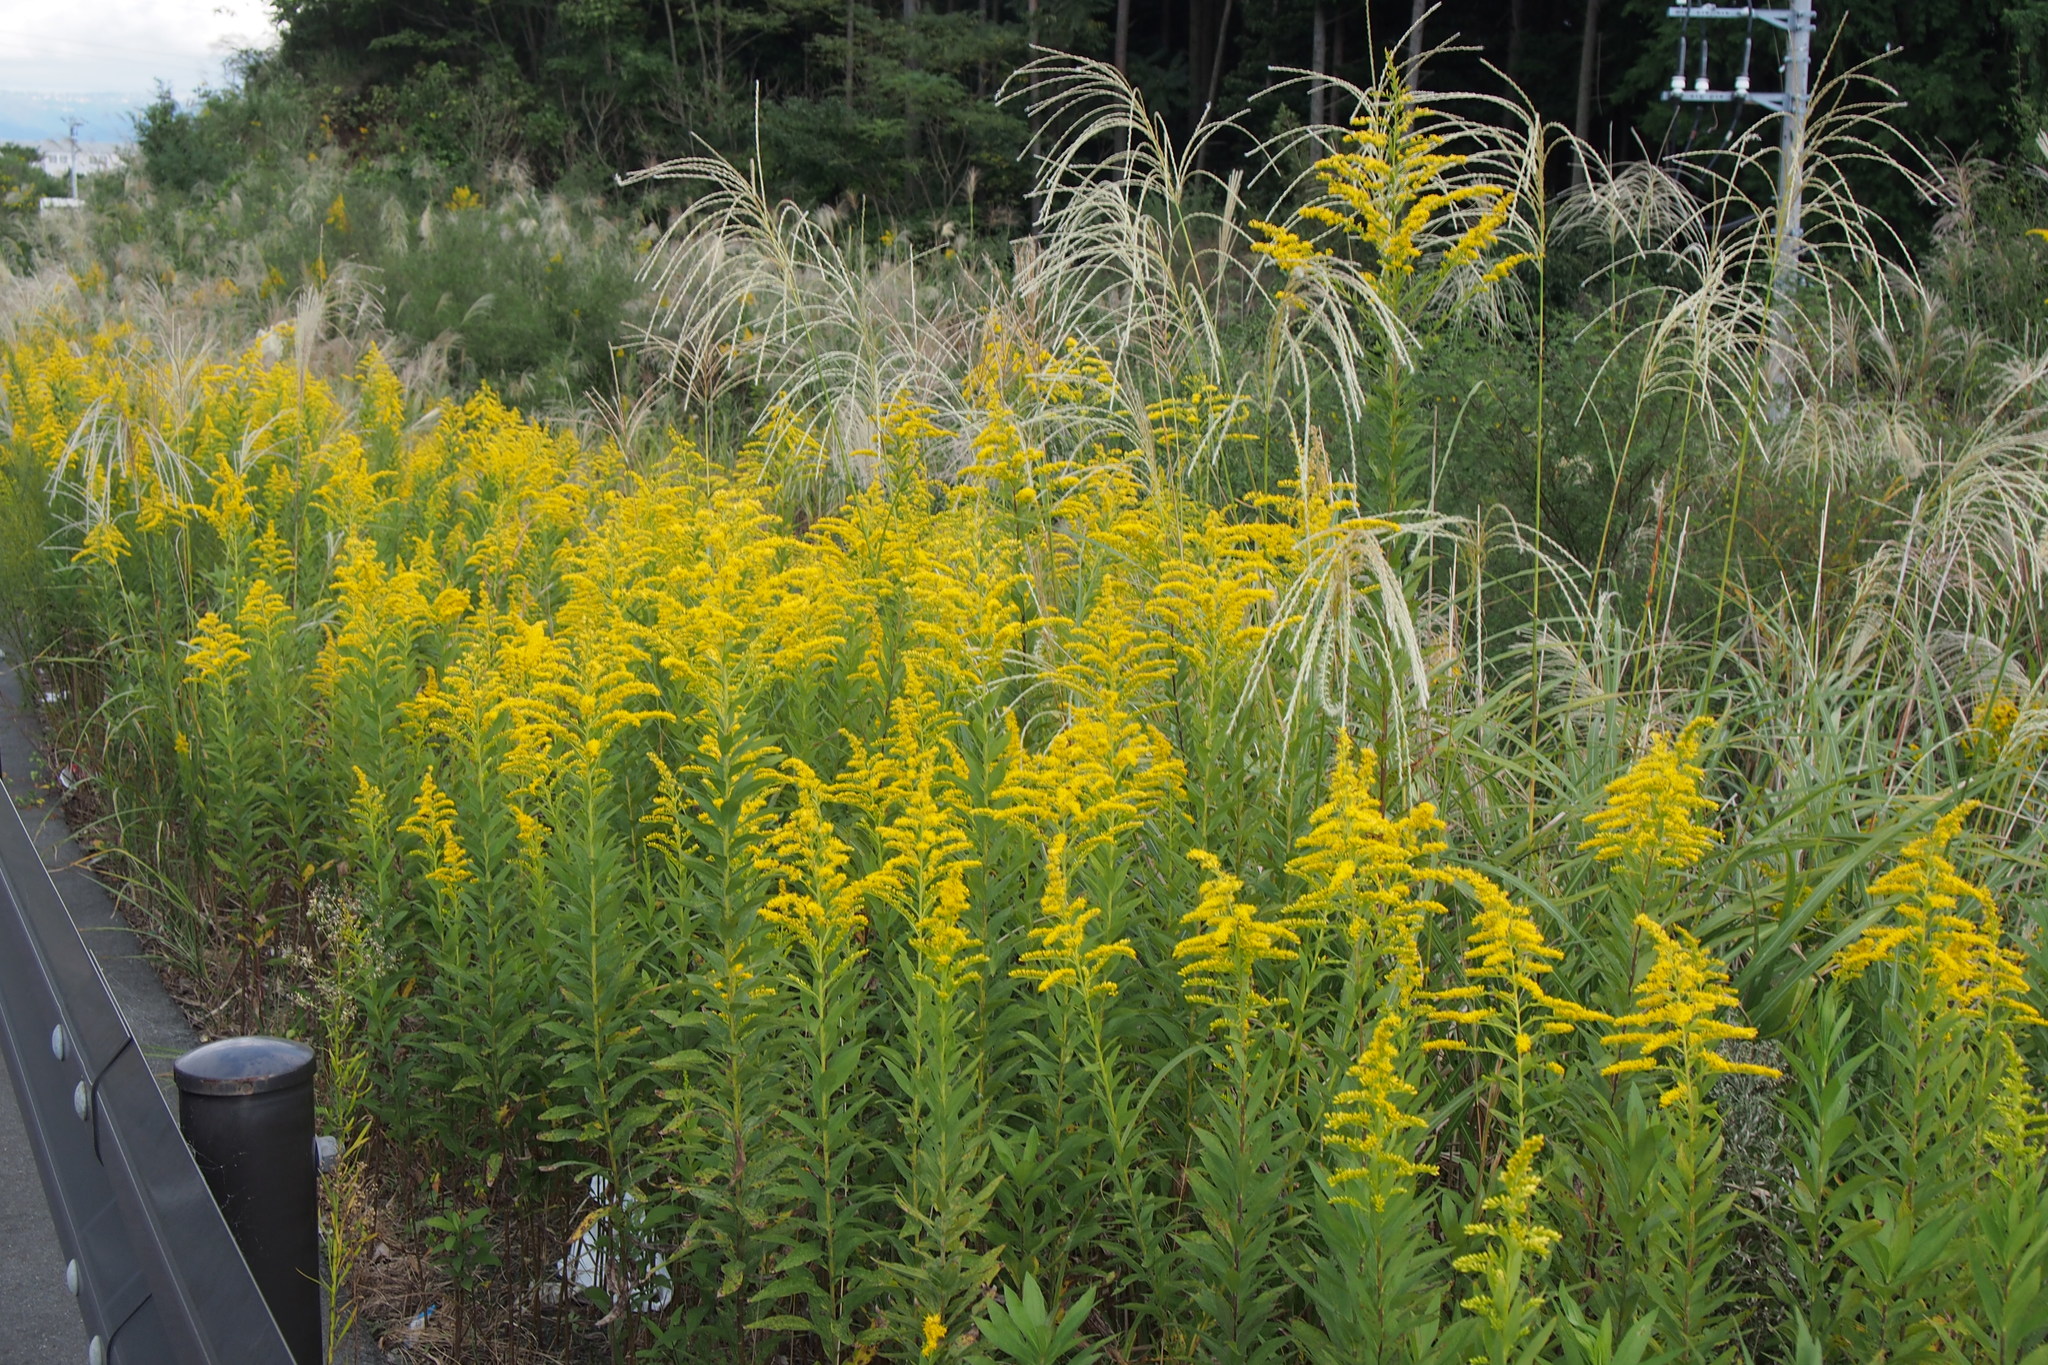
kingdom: Plantae
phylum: Tracheophyta
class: Magnoliopsida
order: Asterales
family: Asteraceae
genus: Solidago
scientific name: Solidago altissima
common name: Late goldenrod
